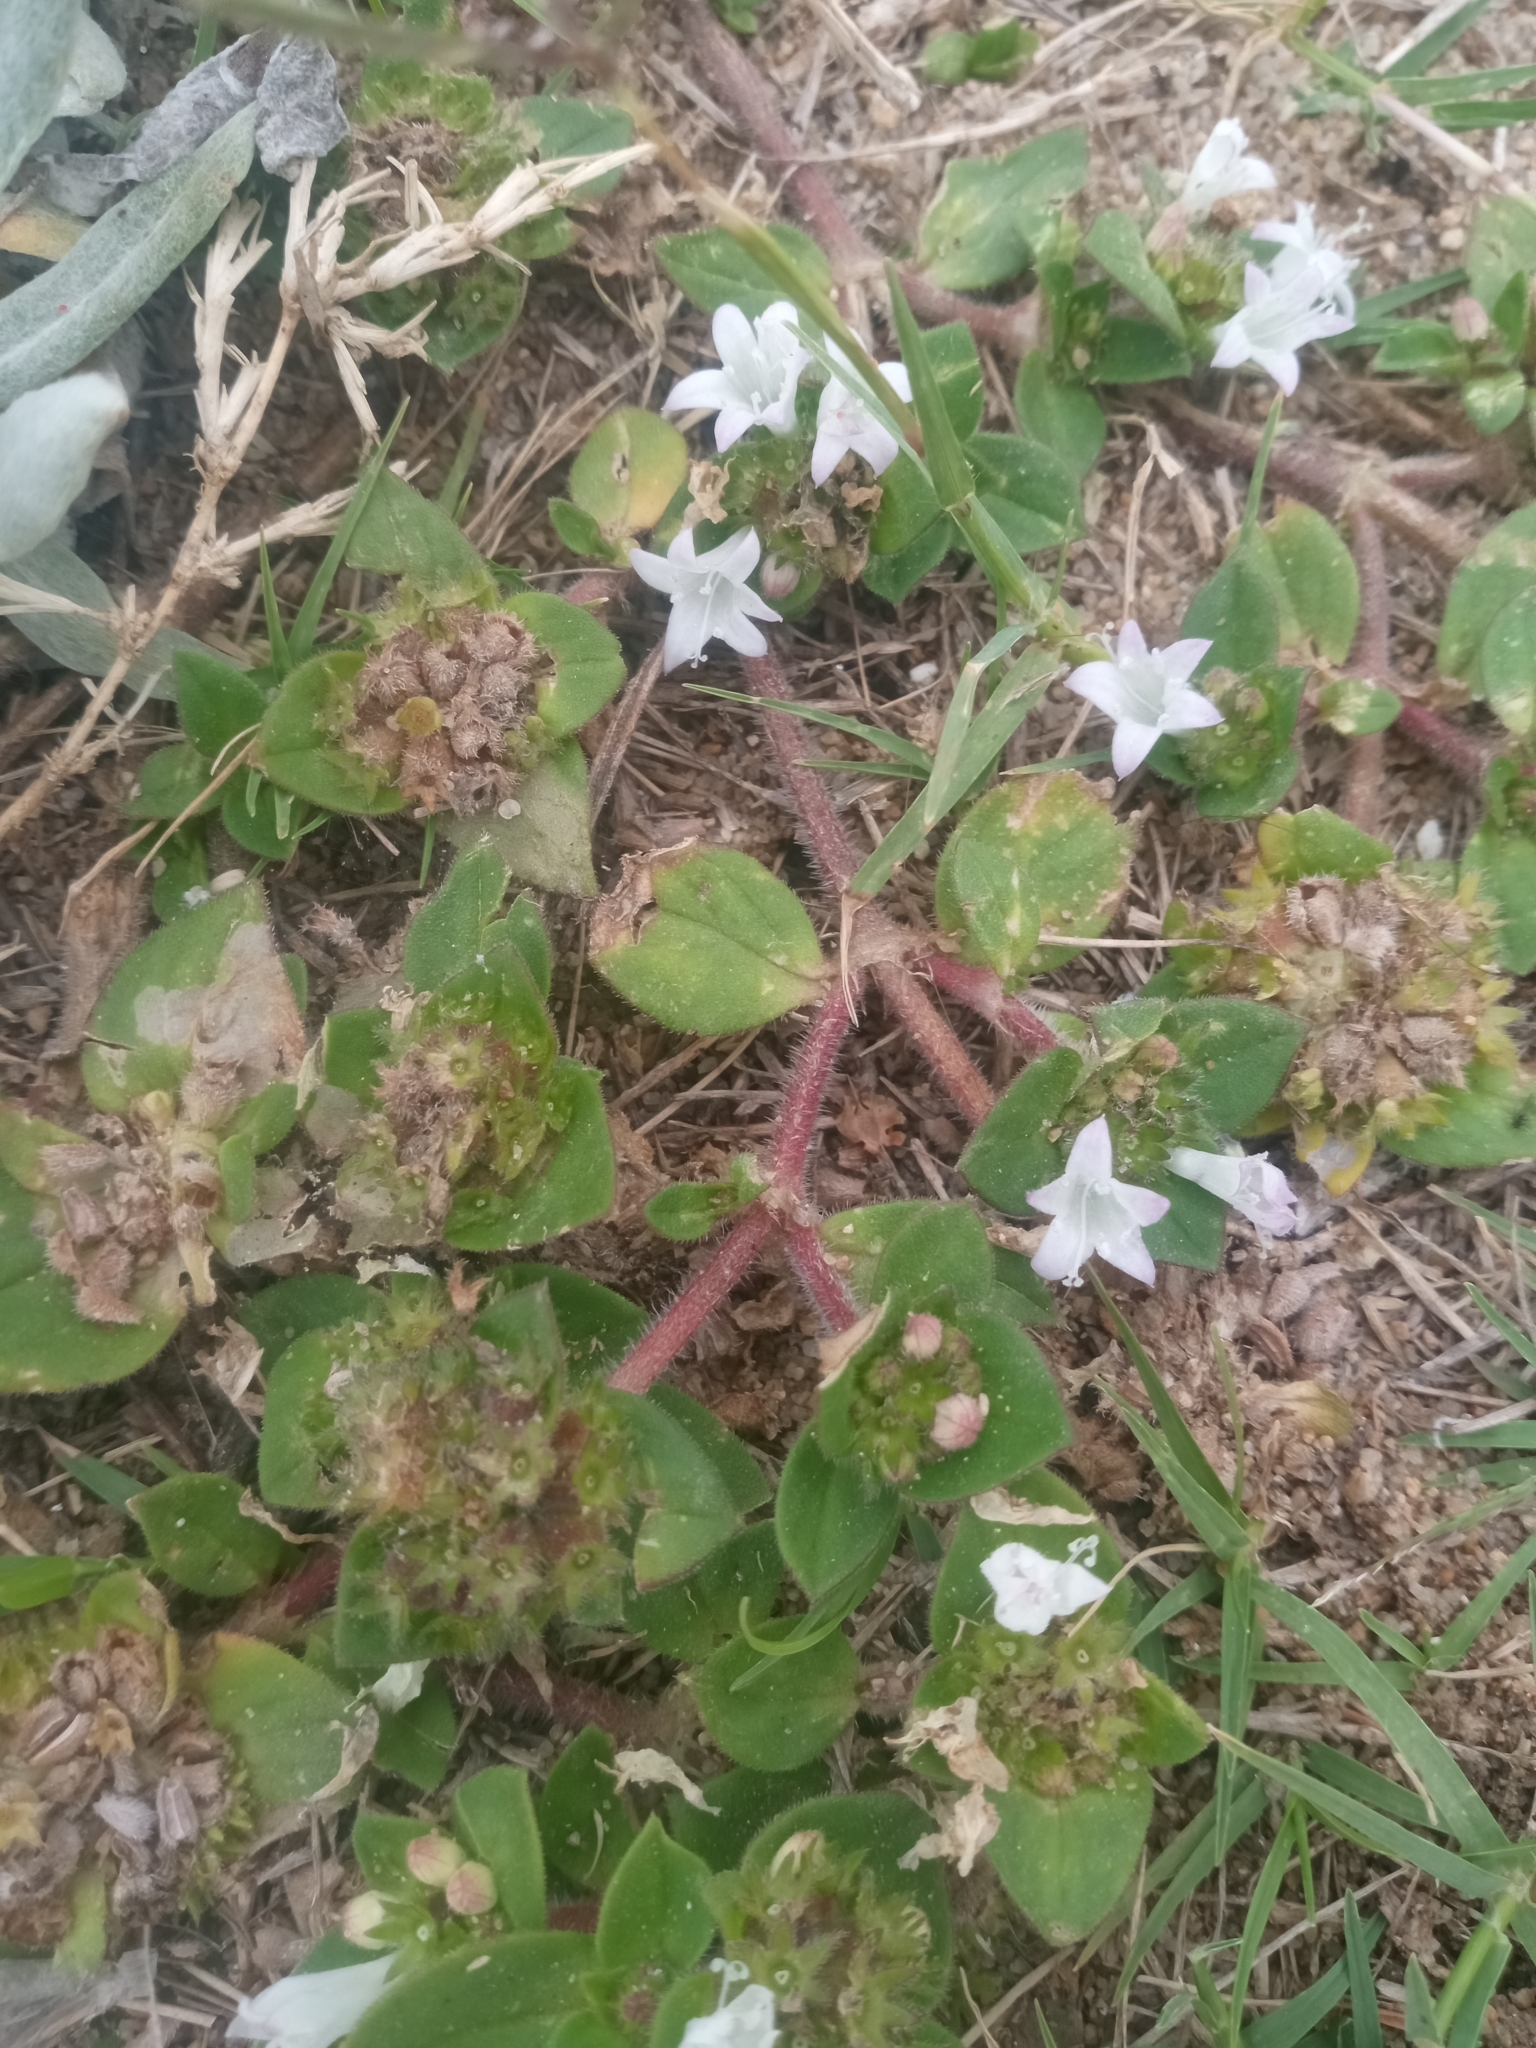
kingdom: Plantae
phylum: Tracheophyta
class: Magnoliopsida
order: Gentianales
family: Rubiaceae
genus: Richardia
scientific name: Richardia brasiliensis
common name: Tropical mexican clover
